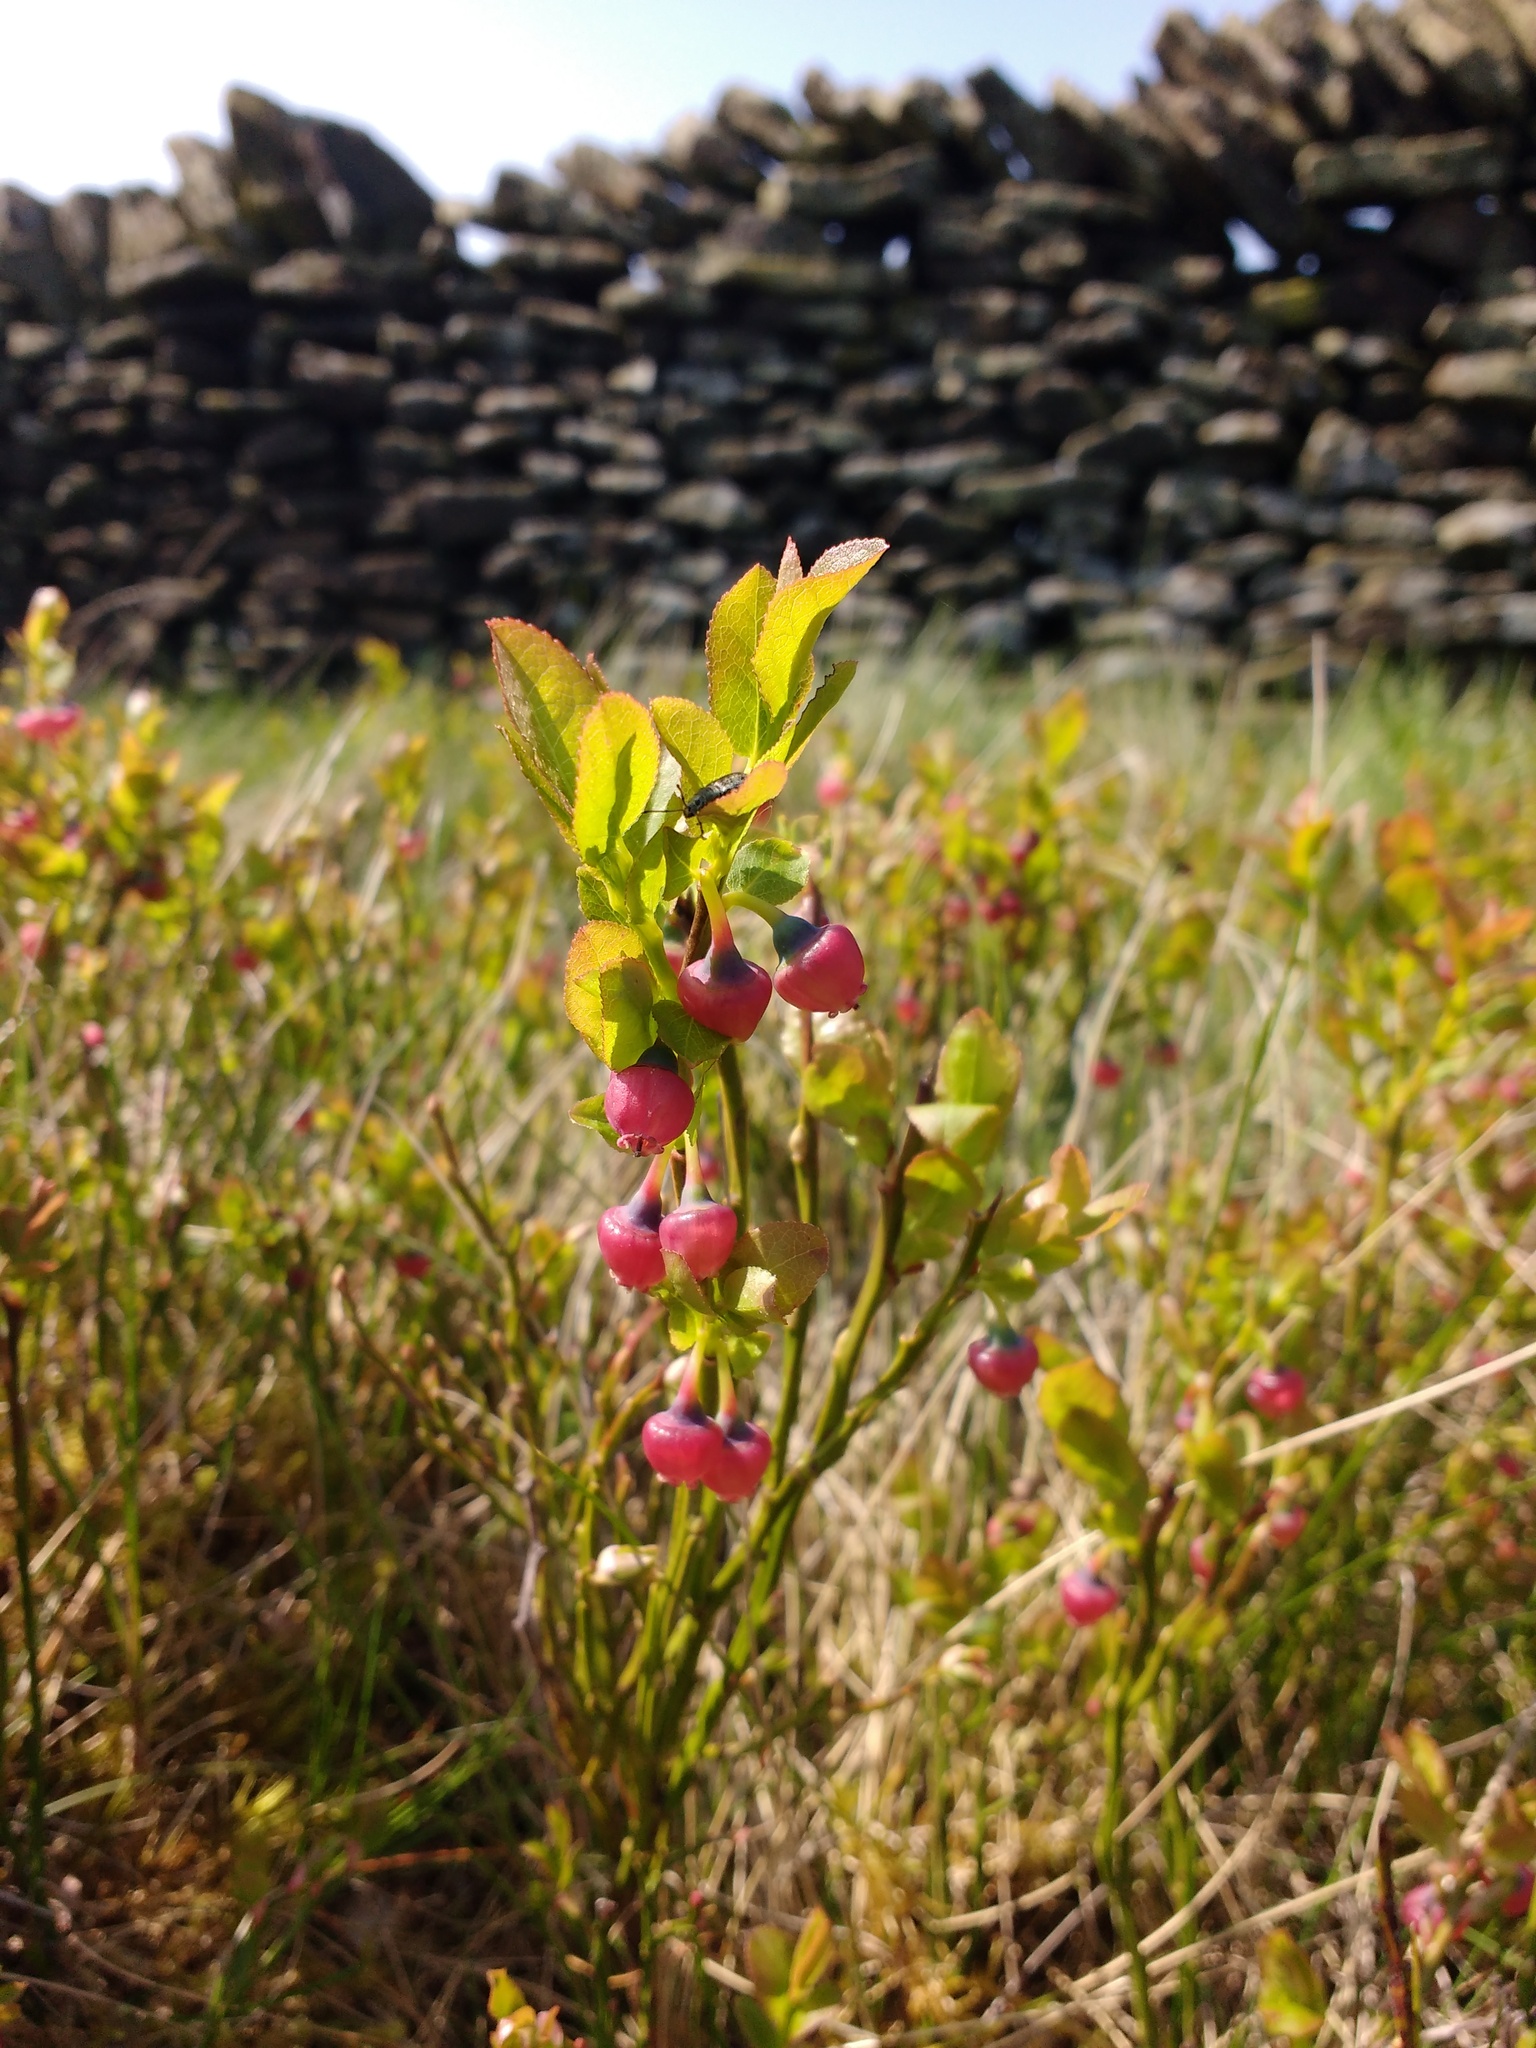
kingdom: Plantae
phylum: Tracheophyta
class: Magnoliopsida
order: Ericales
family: Ericaceae
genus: Vaccinium
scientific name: Vaccinium myrtillus
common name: Bilberry
